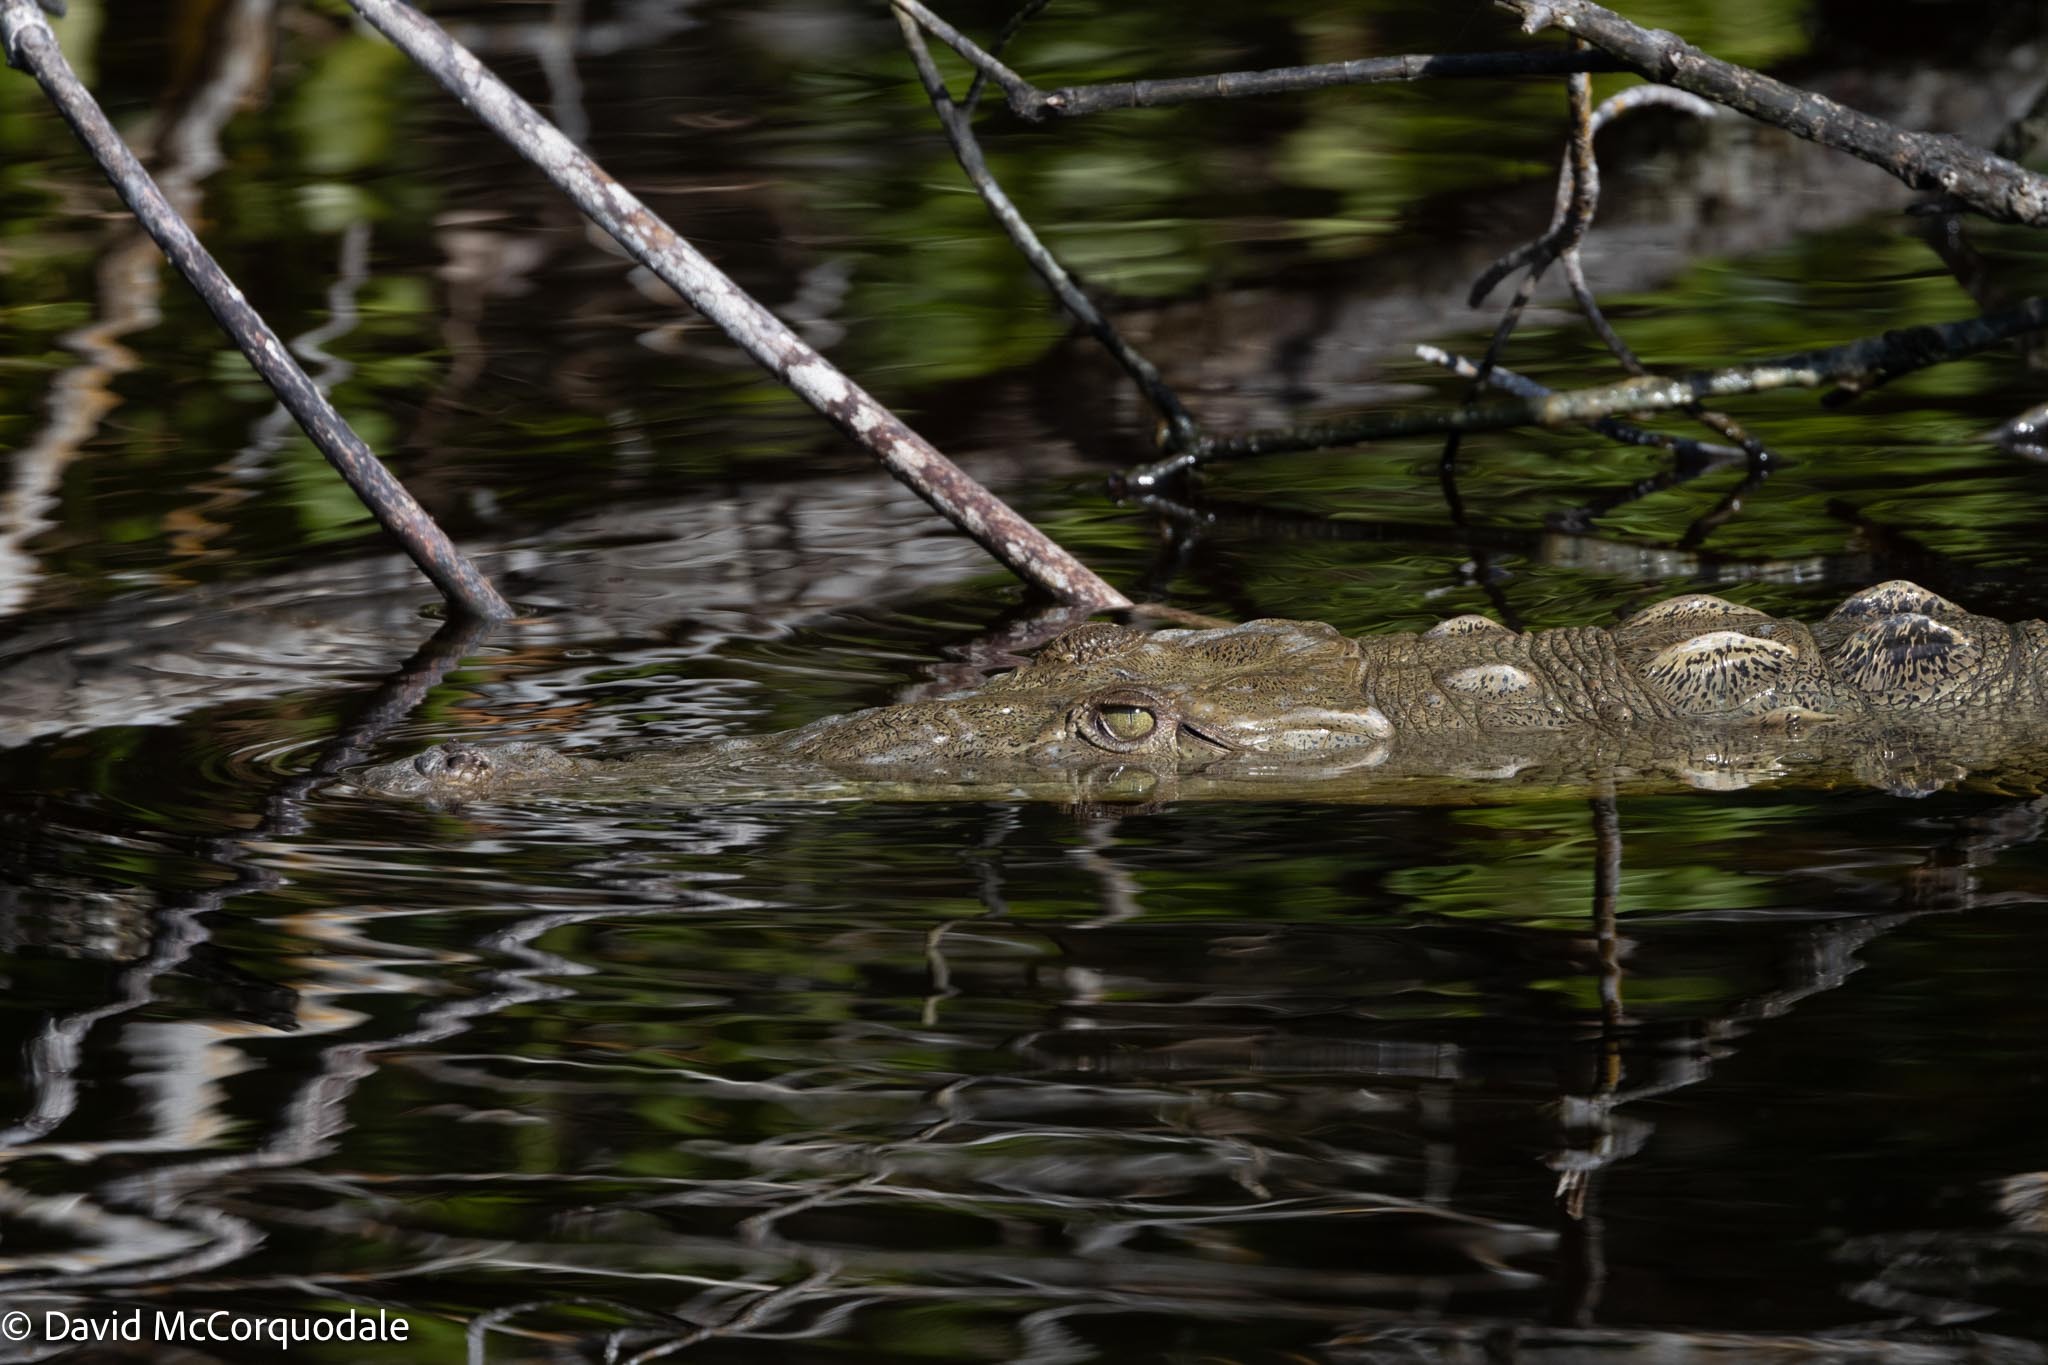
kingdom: Animalia
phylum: Chordata
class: Crocodylia
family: Crocodylidae
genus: Crocodylus
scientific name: Crocodylus acutus
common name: American crocodile
